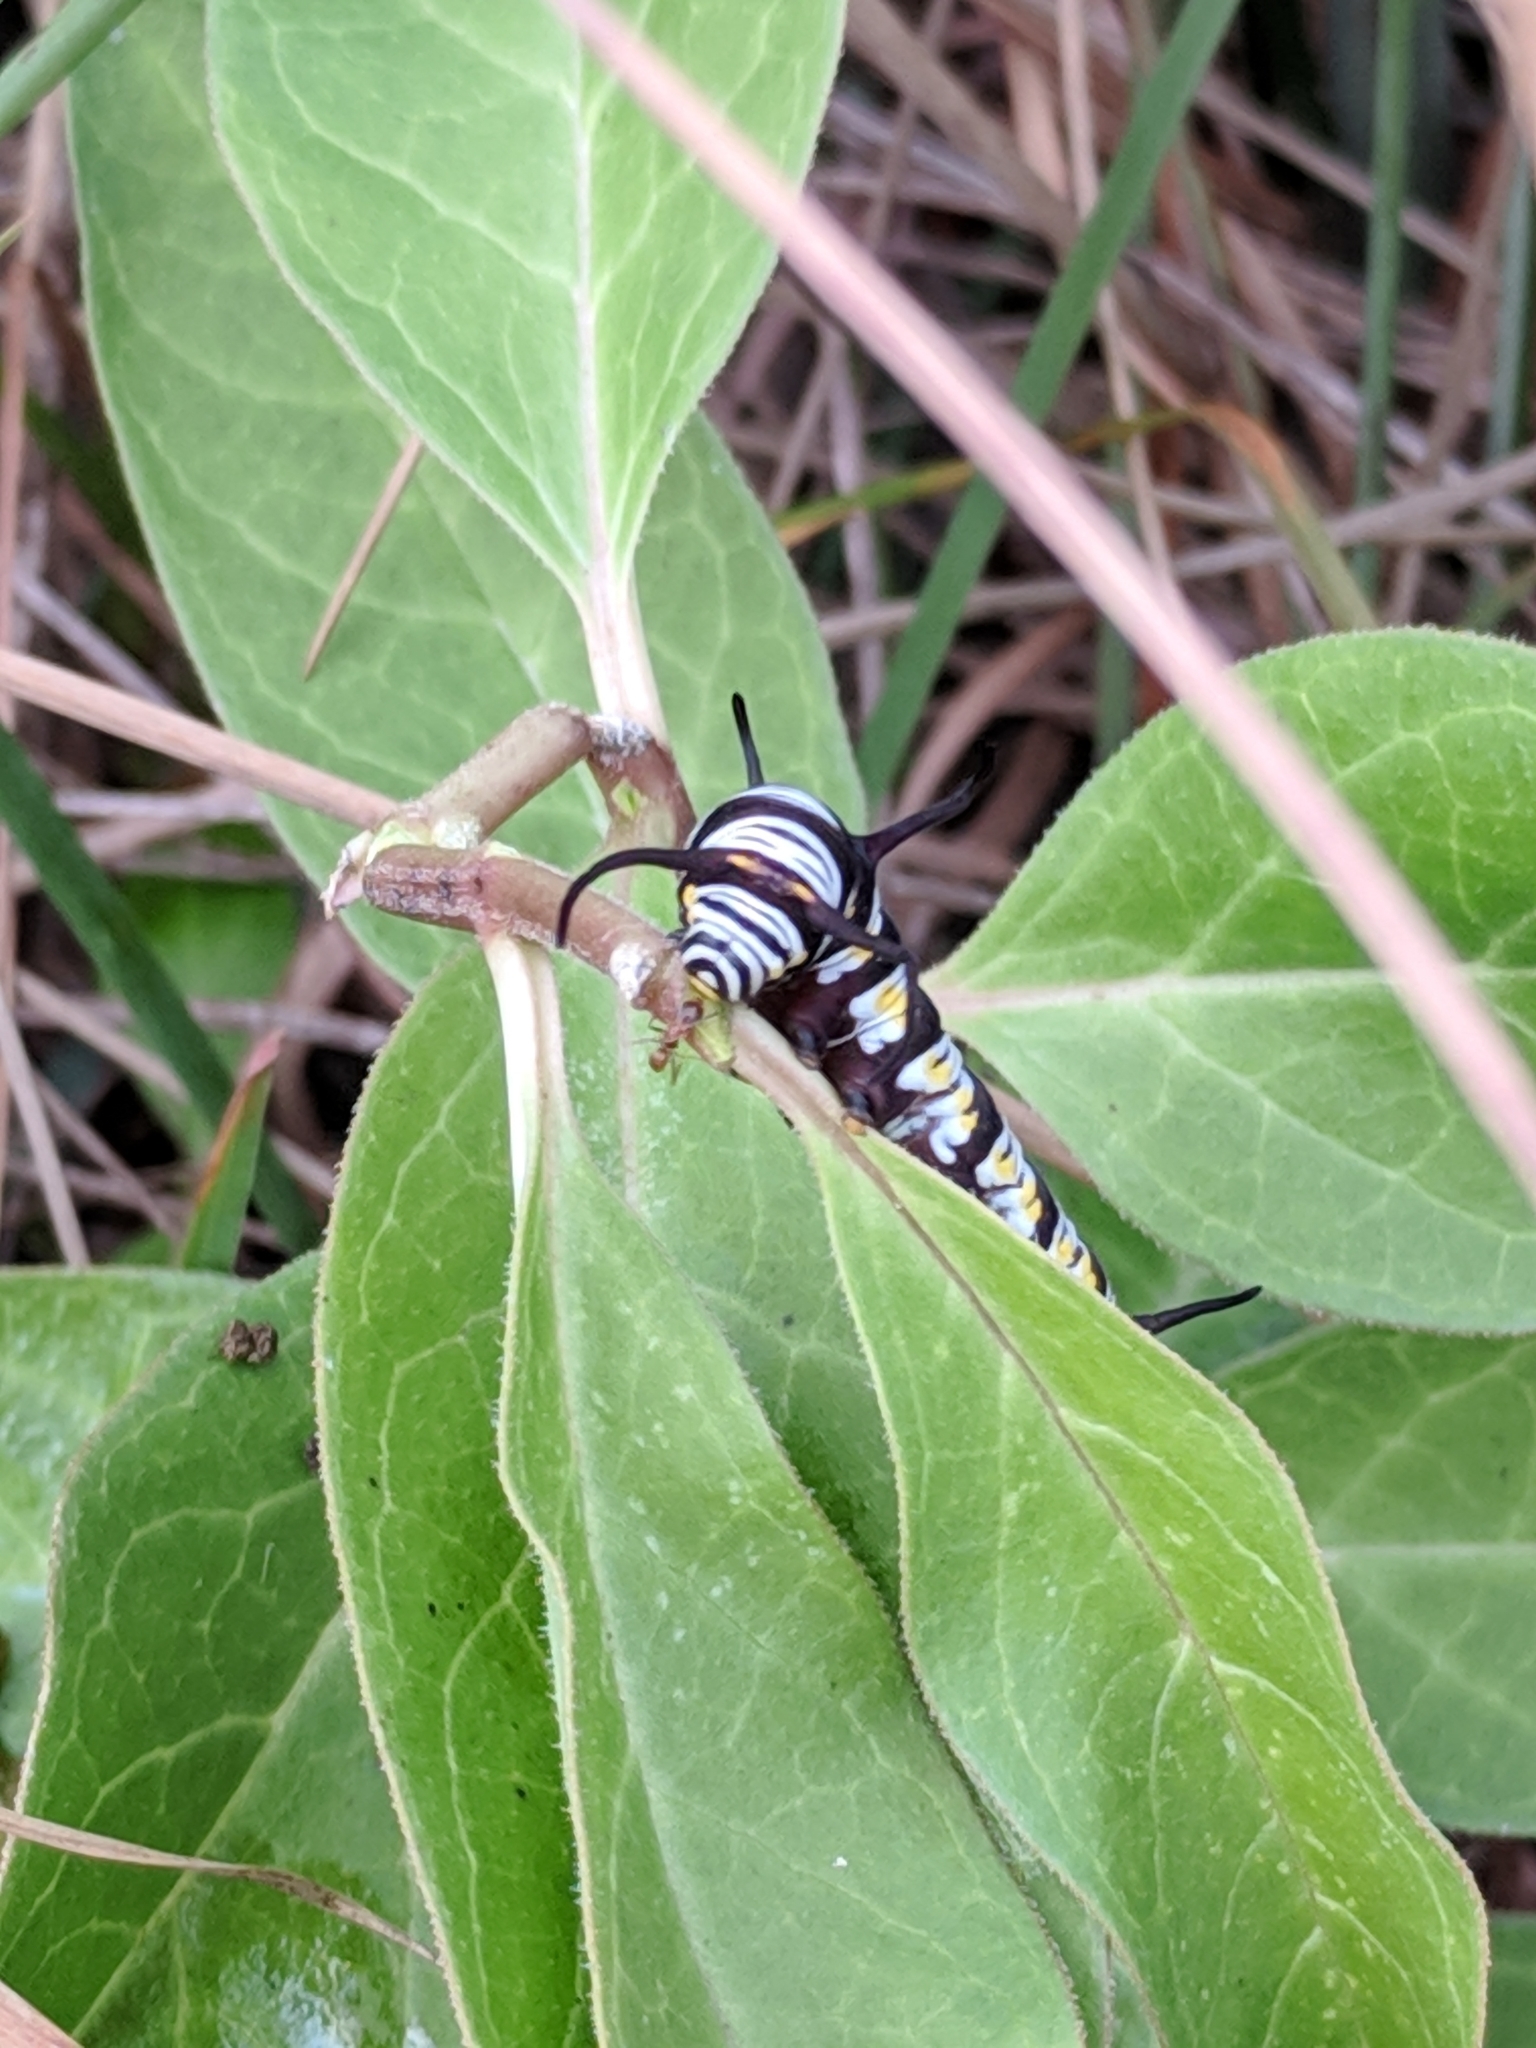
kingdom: Plantae
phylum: Tracheophyta
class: Magnoliopsida
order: Gentianales
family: Apocynaceae
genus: Asclepias
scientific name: Asclepias oenotheroides
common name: Zizotes milkweed
